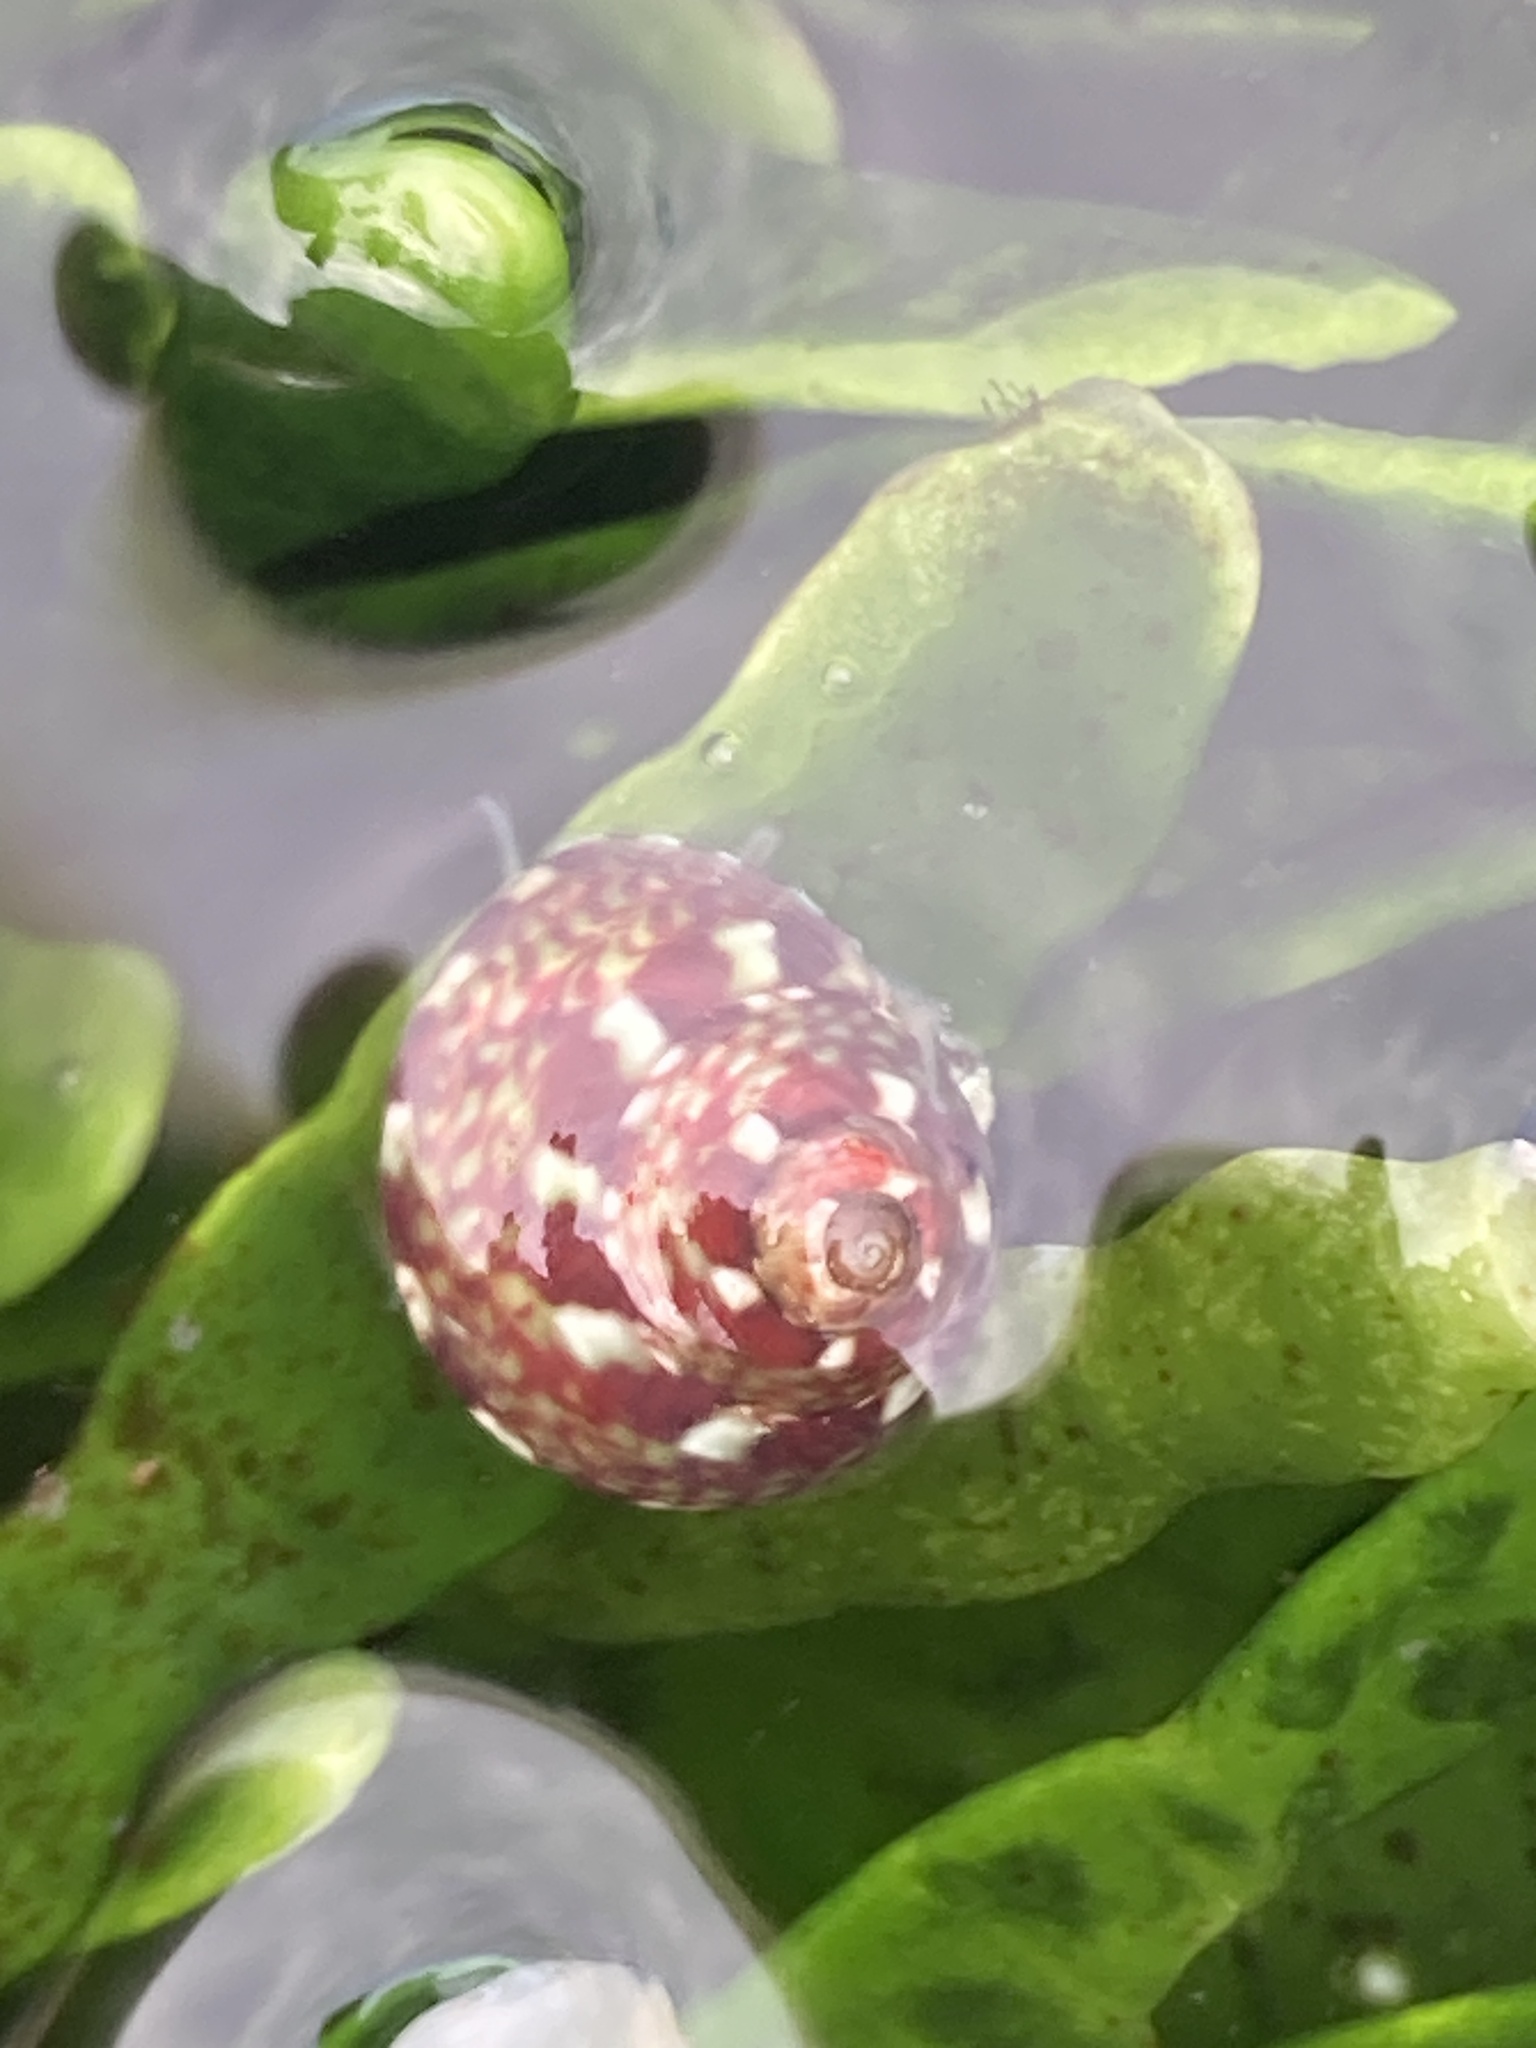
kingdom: Animalia
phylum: Mollusca
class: Gastropoda
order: Trochida
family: Trochidae
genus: Cantharidella
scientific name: Cantharidella picturata
